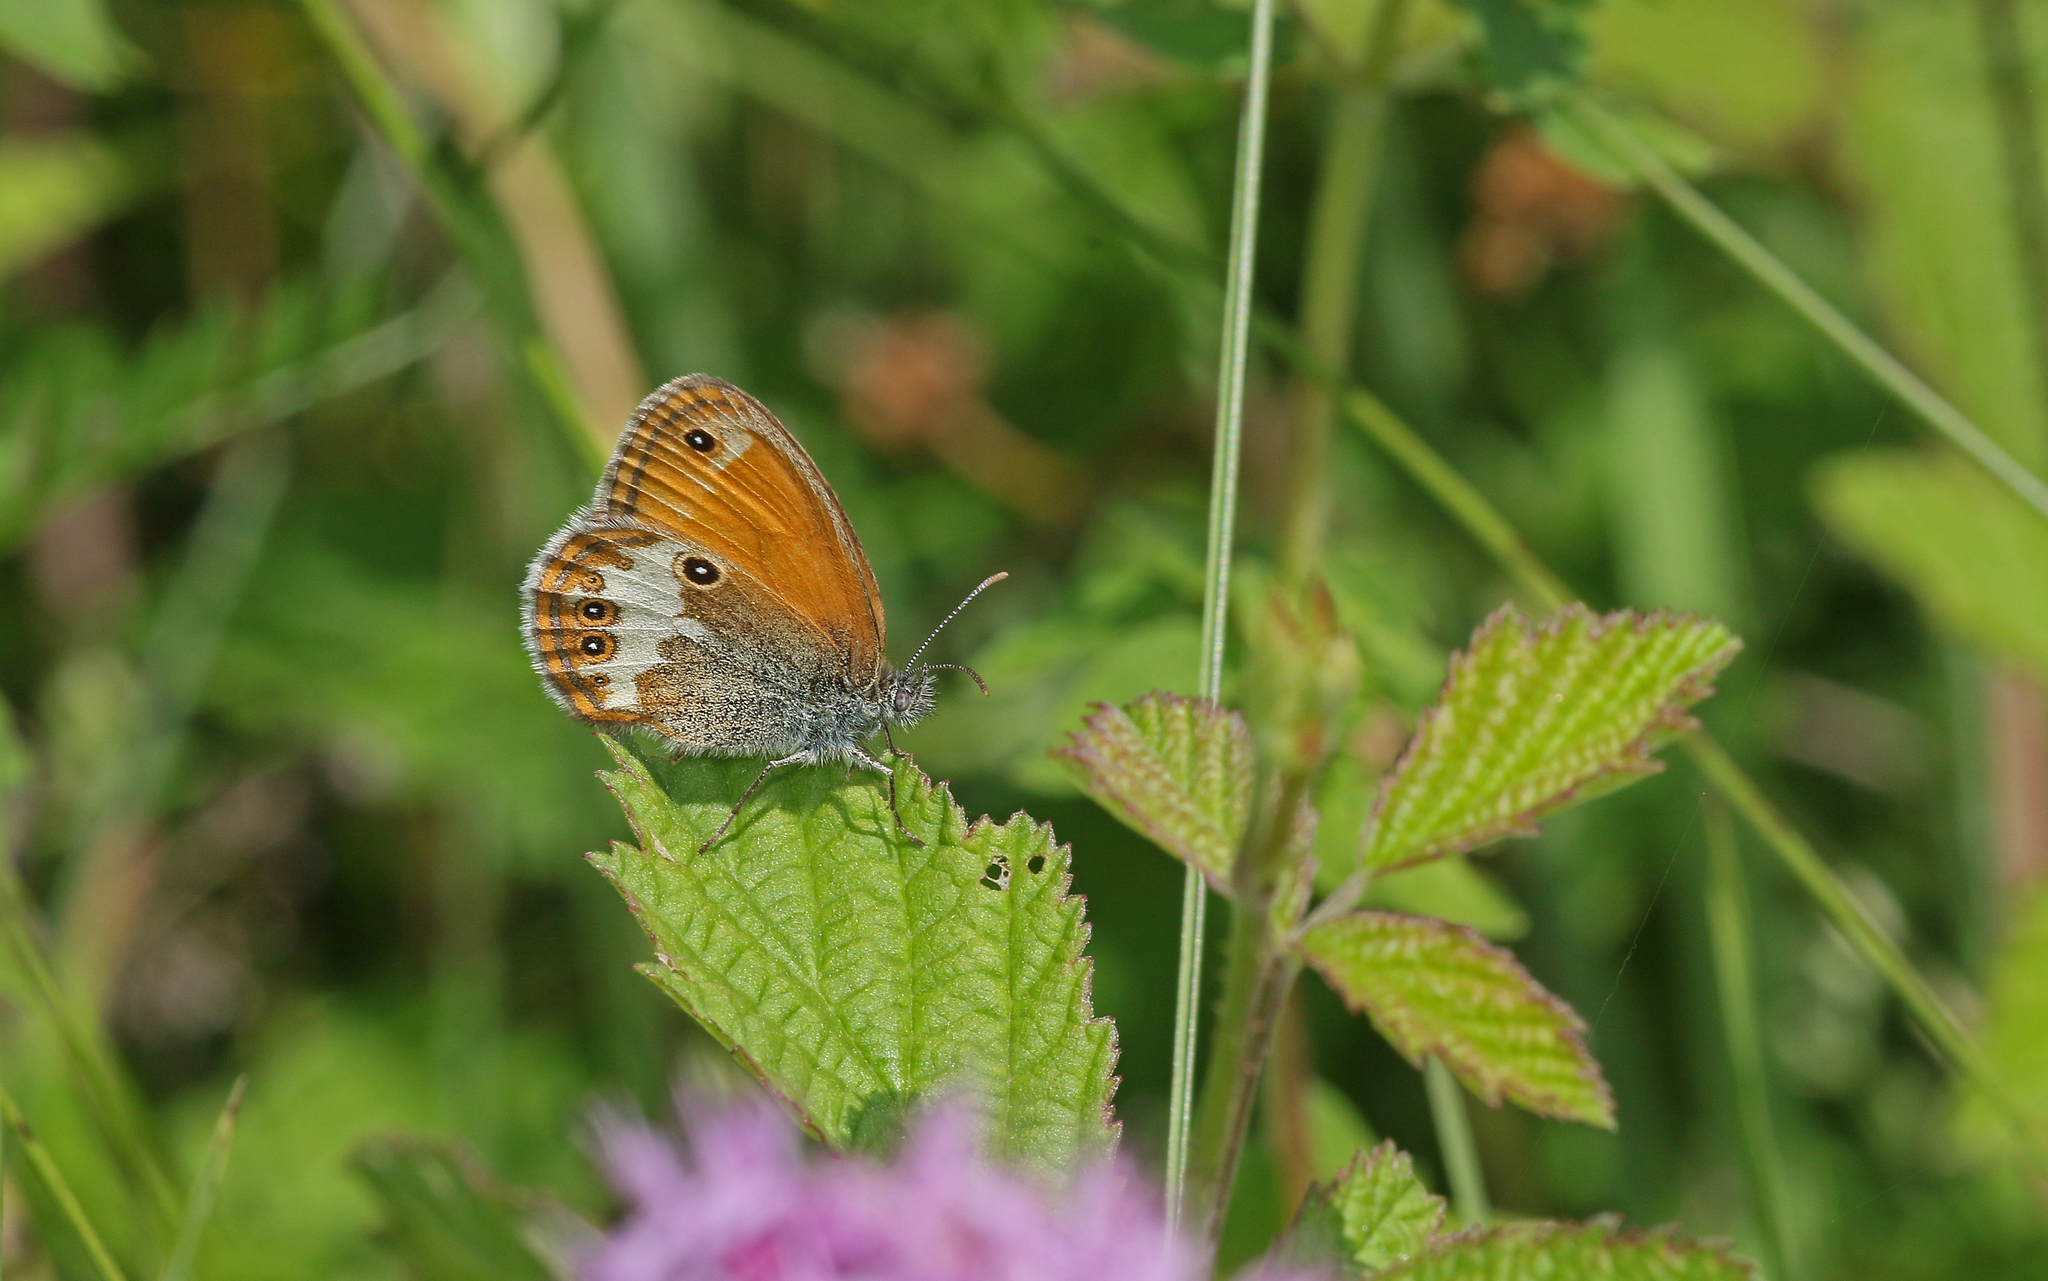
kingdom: Animalia
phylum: Arthropoda
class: Insecta
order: Lepidoptera
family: Nymphalidae
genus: Coenonympha
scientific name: Coenonympha arcania
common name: Pearly heath
